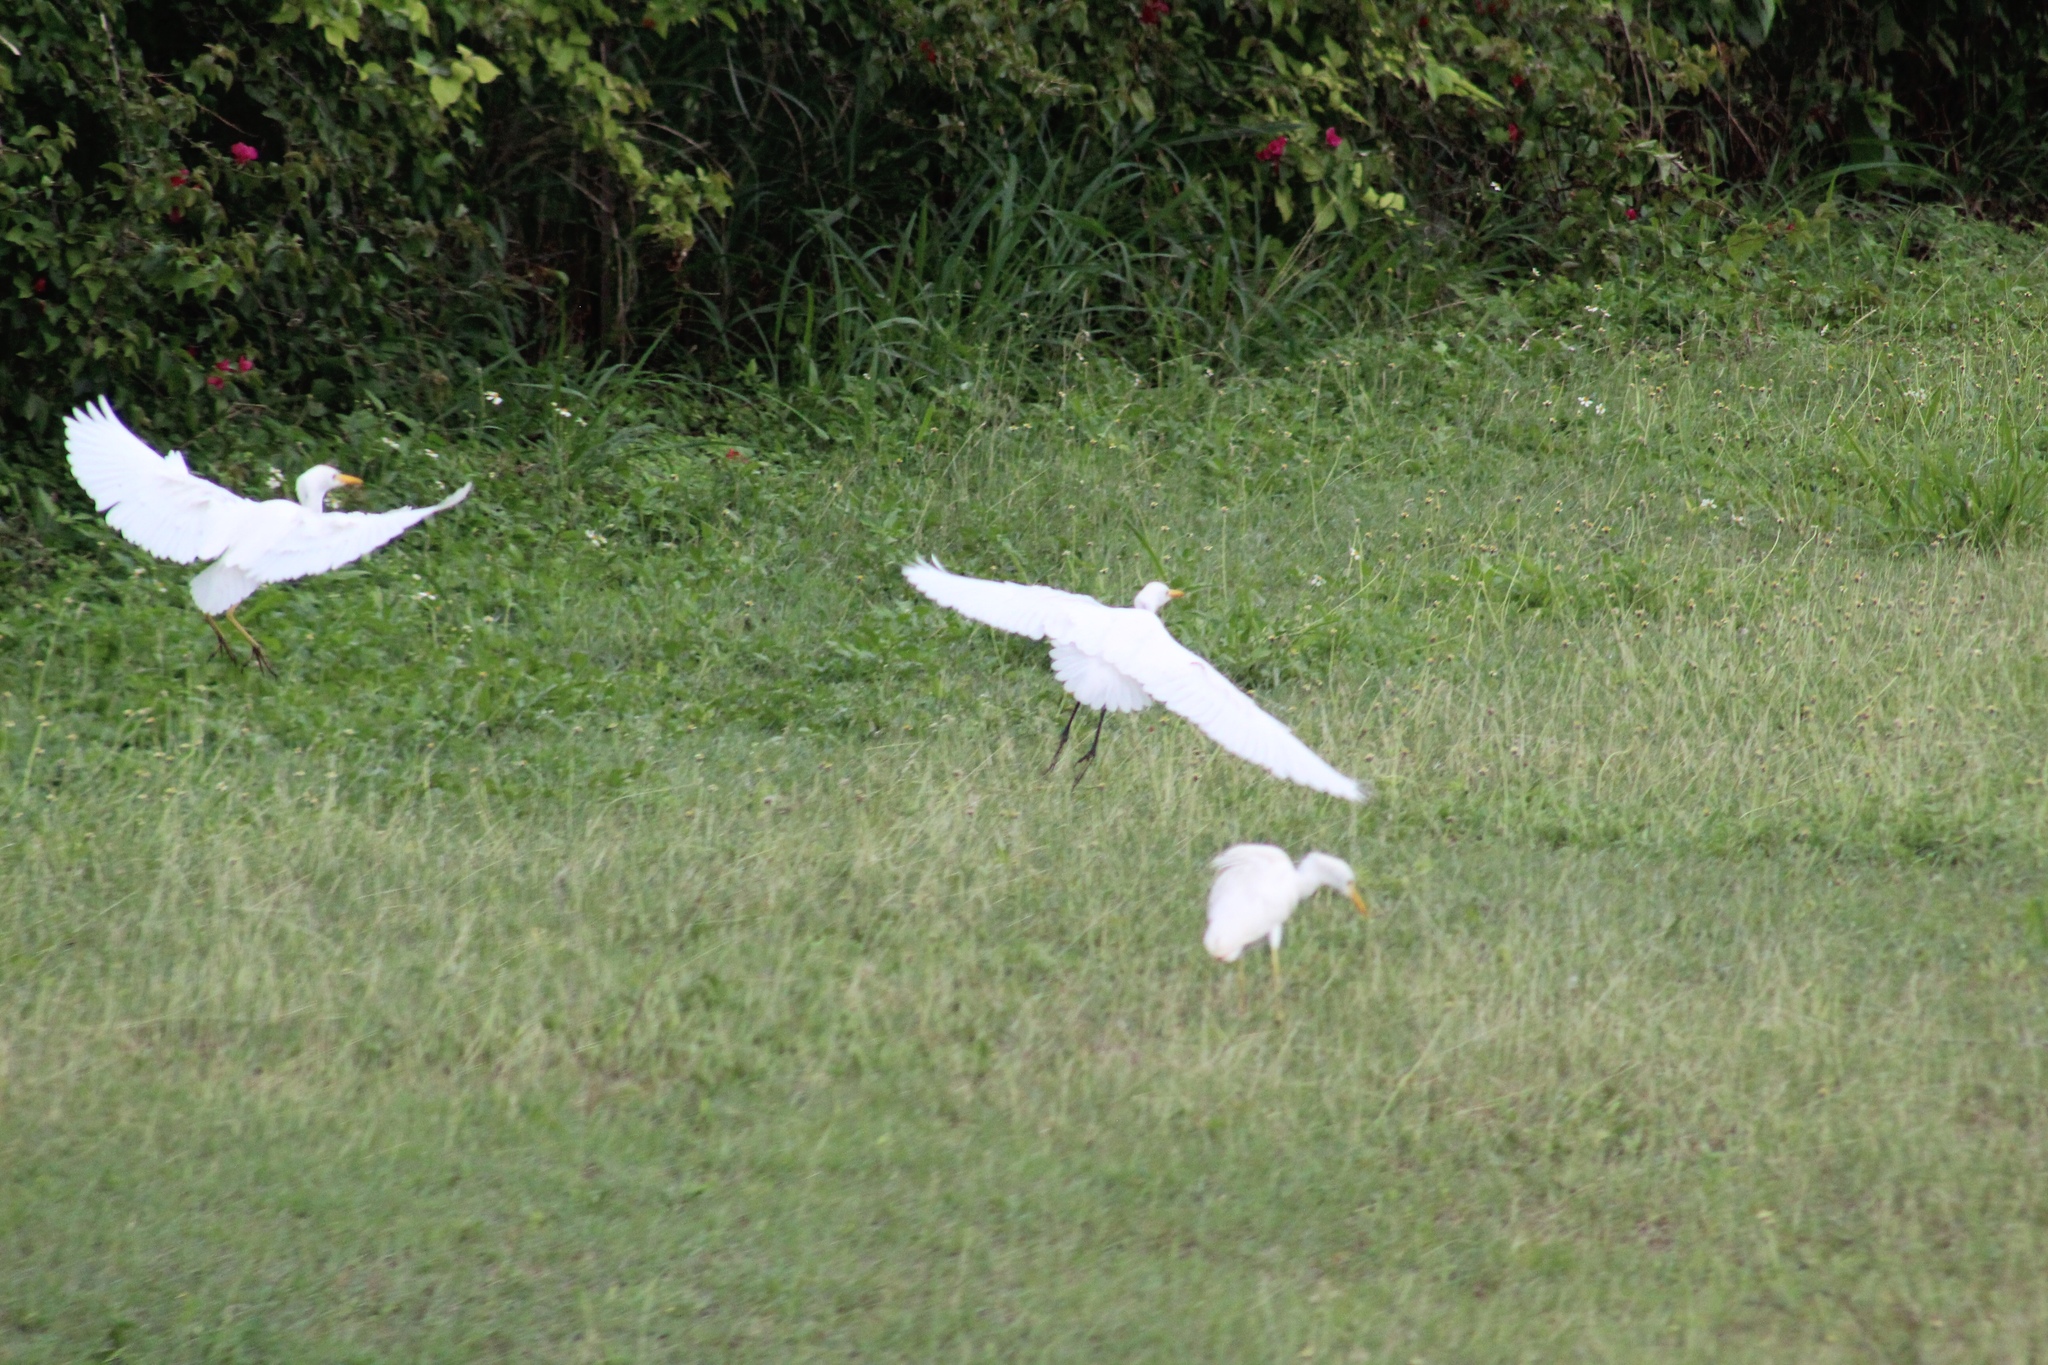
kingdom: Animalia
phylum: Chordata
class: Aves
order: Pelecaniformes
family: Ardeidae
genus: Bubulcus
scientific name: Bubulcus ibis
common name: Cattle egret
